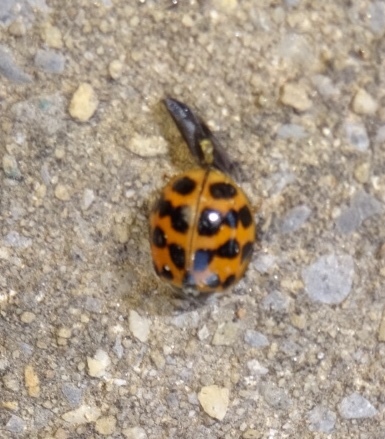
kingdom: Animalia
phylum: Arthropoda
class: Insecta
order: Coleoptera
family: Coccinellidae
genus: Harmonia
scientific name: Harmonia axyridis
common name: Harlequin ladybird
